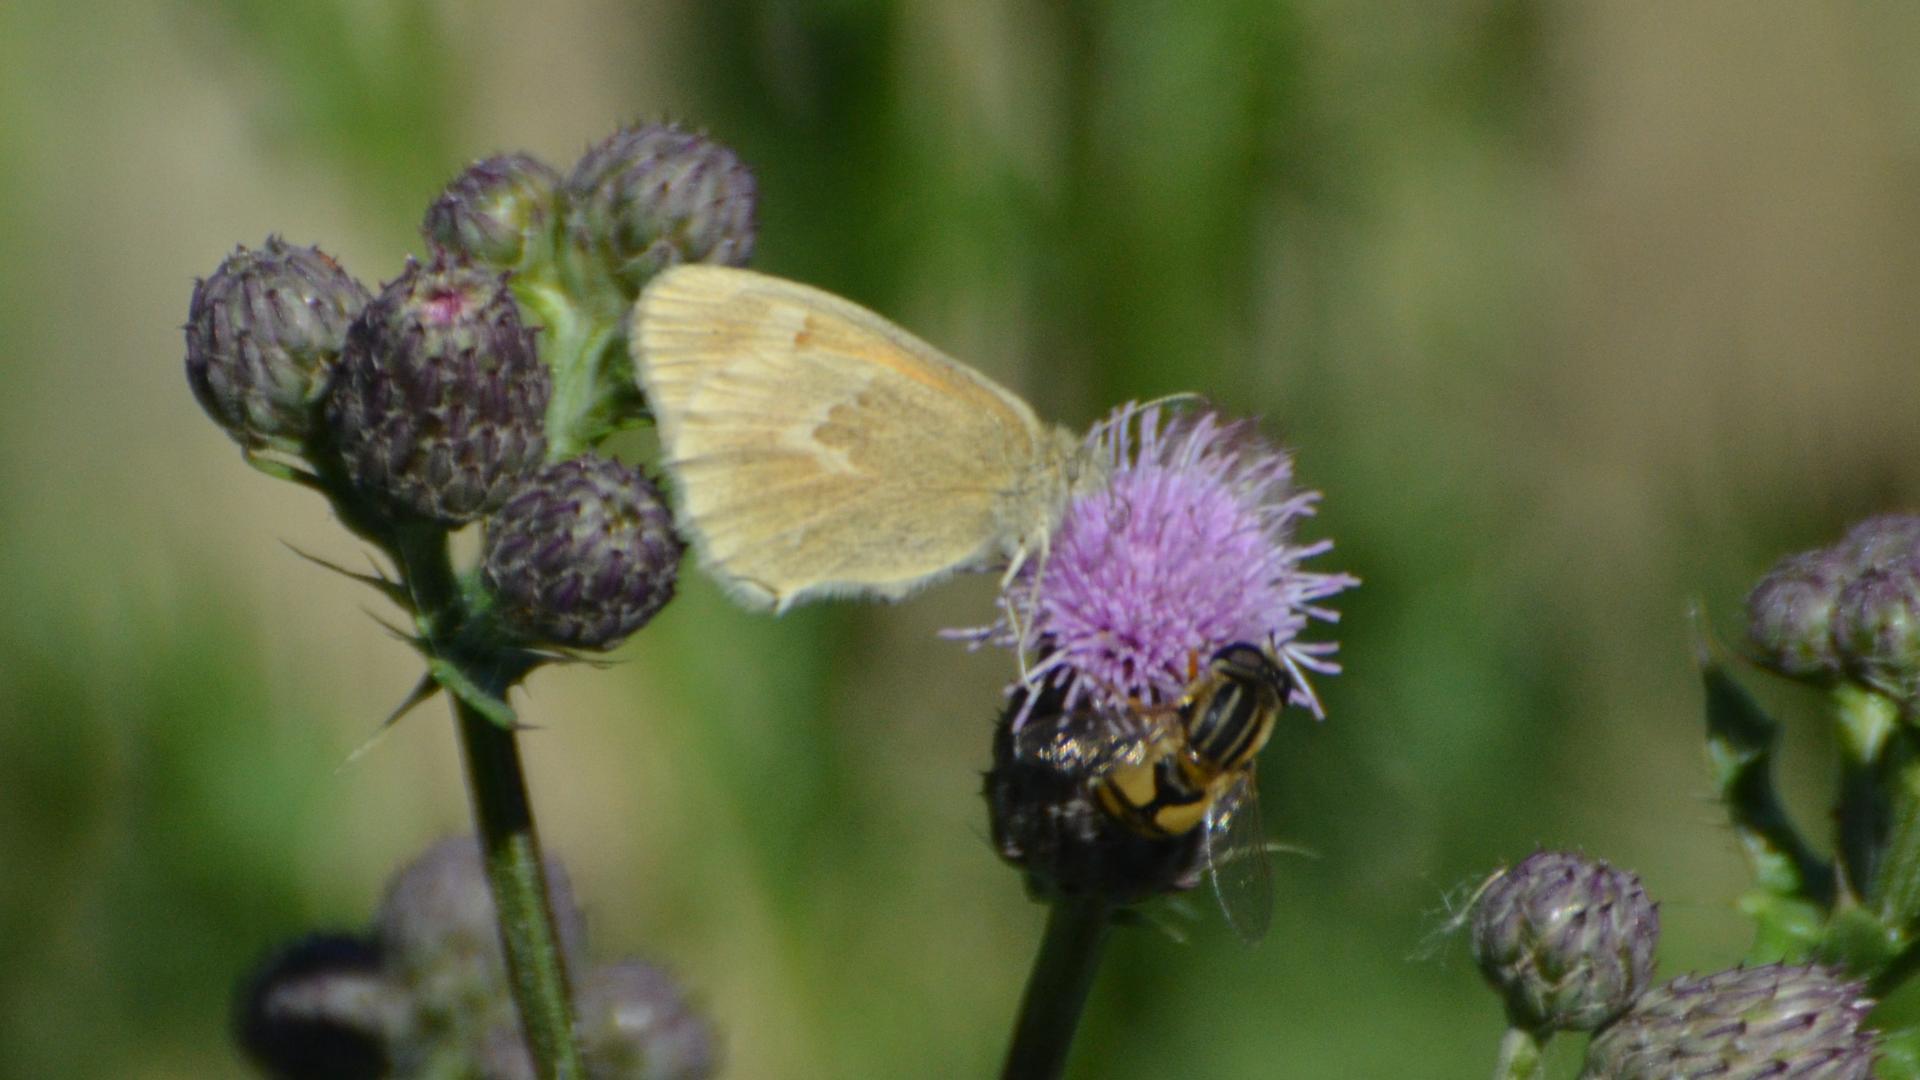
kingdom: Animalia
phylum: Arthropoda
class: Insecta
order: Lepidoptera
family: Nymphalidae
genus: Coenonympha
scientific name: Coenonympha california
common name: Common ringlet
